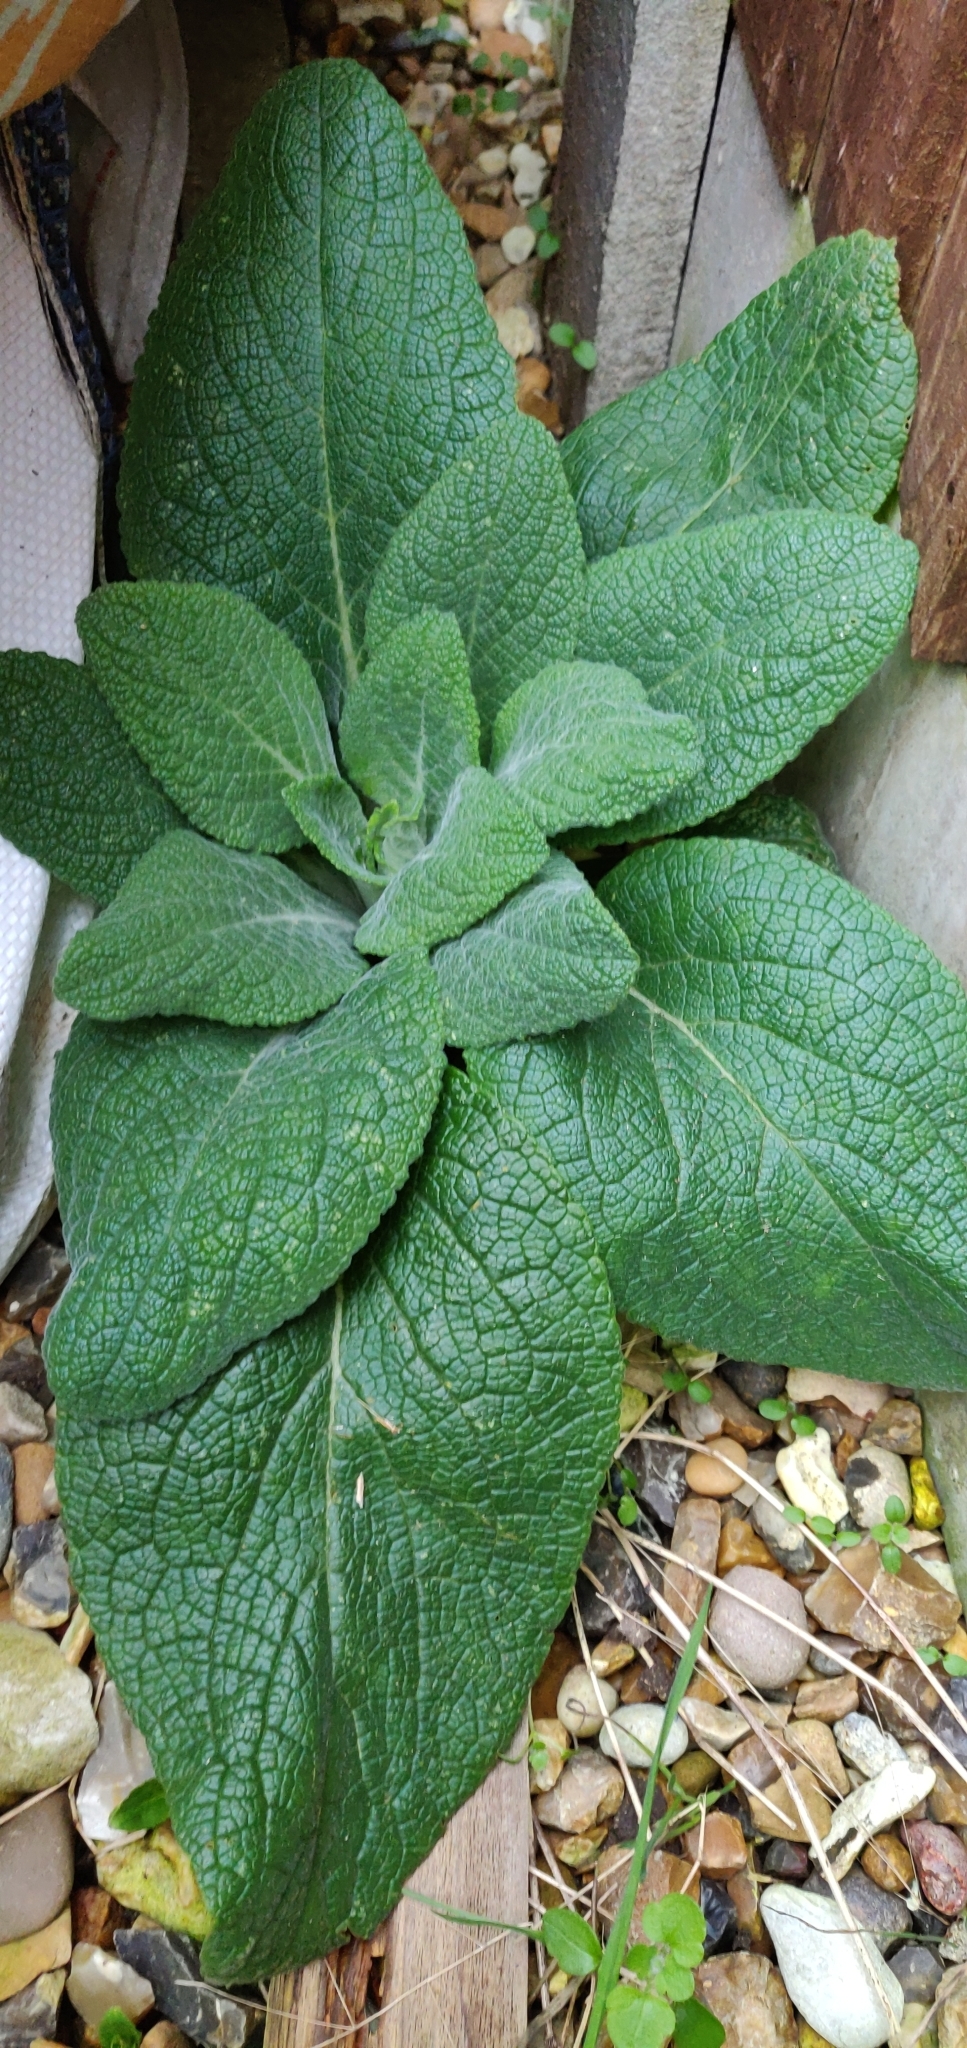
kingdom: Plantae
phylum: Tracheophyta
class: Magnoliopsida
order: Lamiales
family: Plantaginaceae
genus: Digitalis
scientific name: Digitalis purpurea
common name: Foxglove
